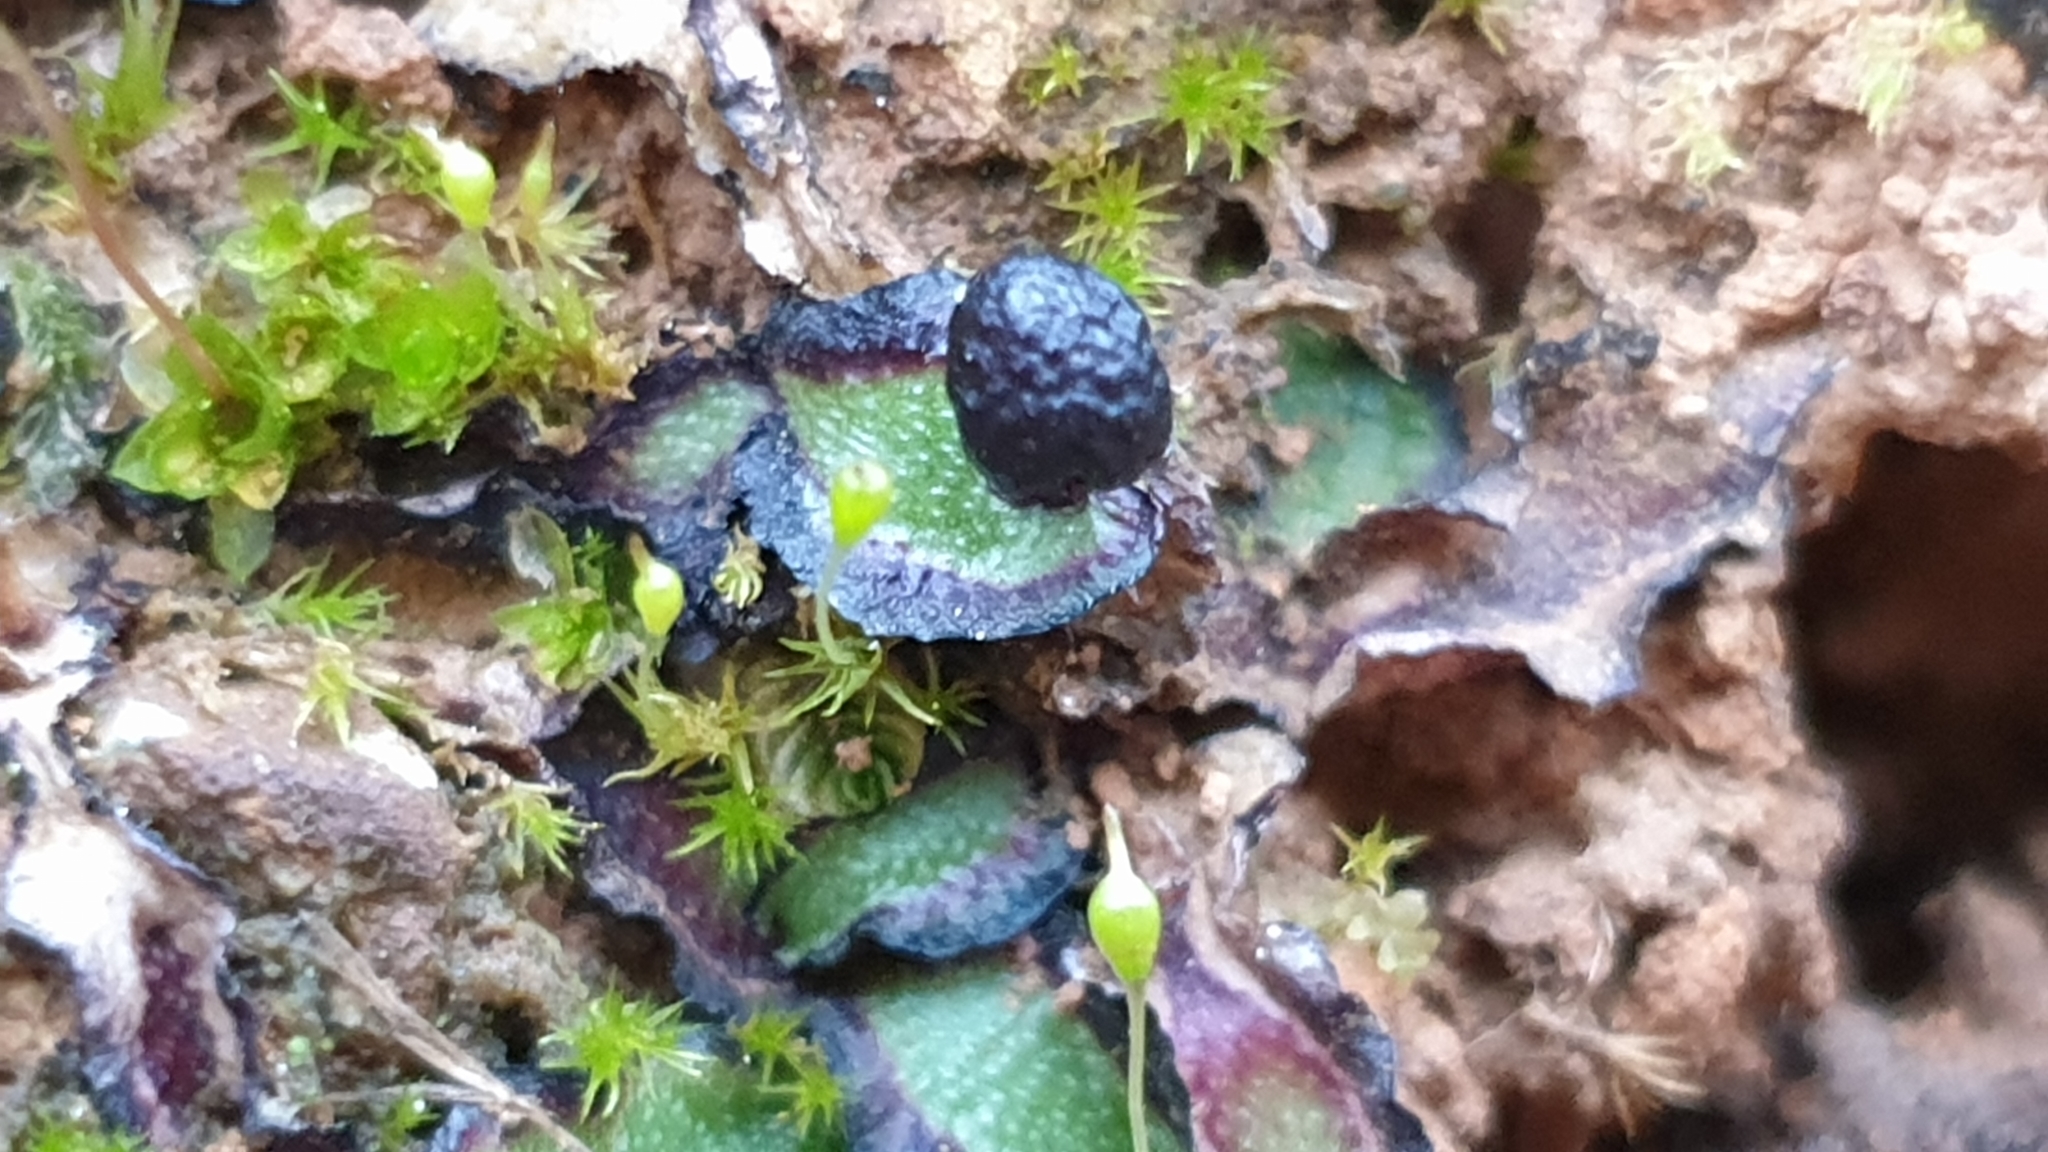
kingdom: Plantae
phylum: Marchantiophyta
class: Marchantiopsida
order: Marchantiales
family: Aytoniaceae
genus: Asterella
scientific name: Asterella drummondii
